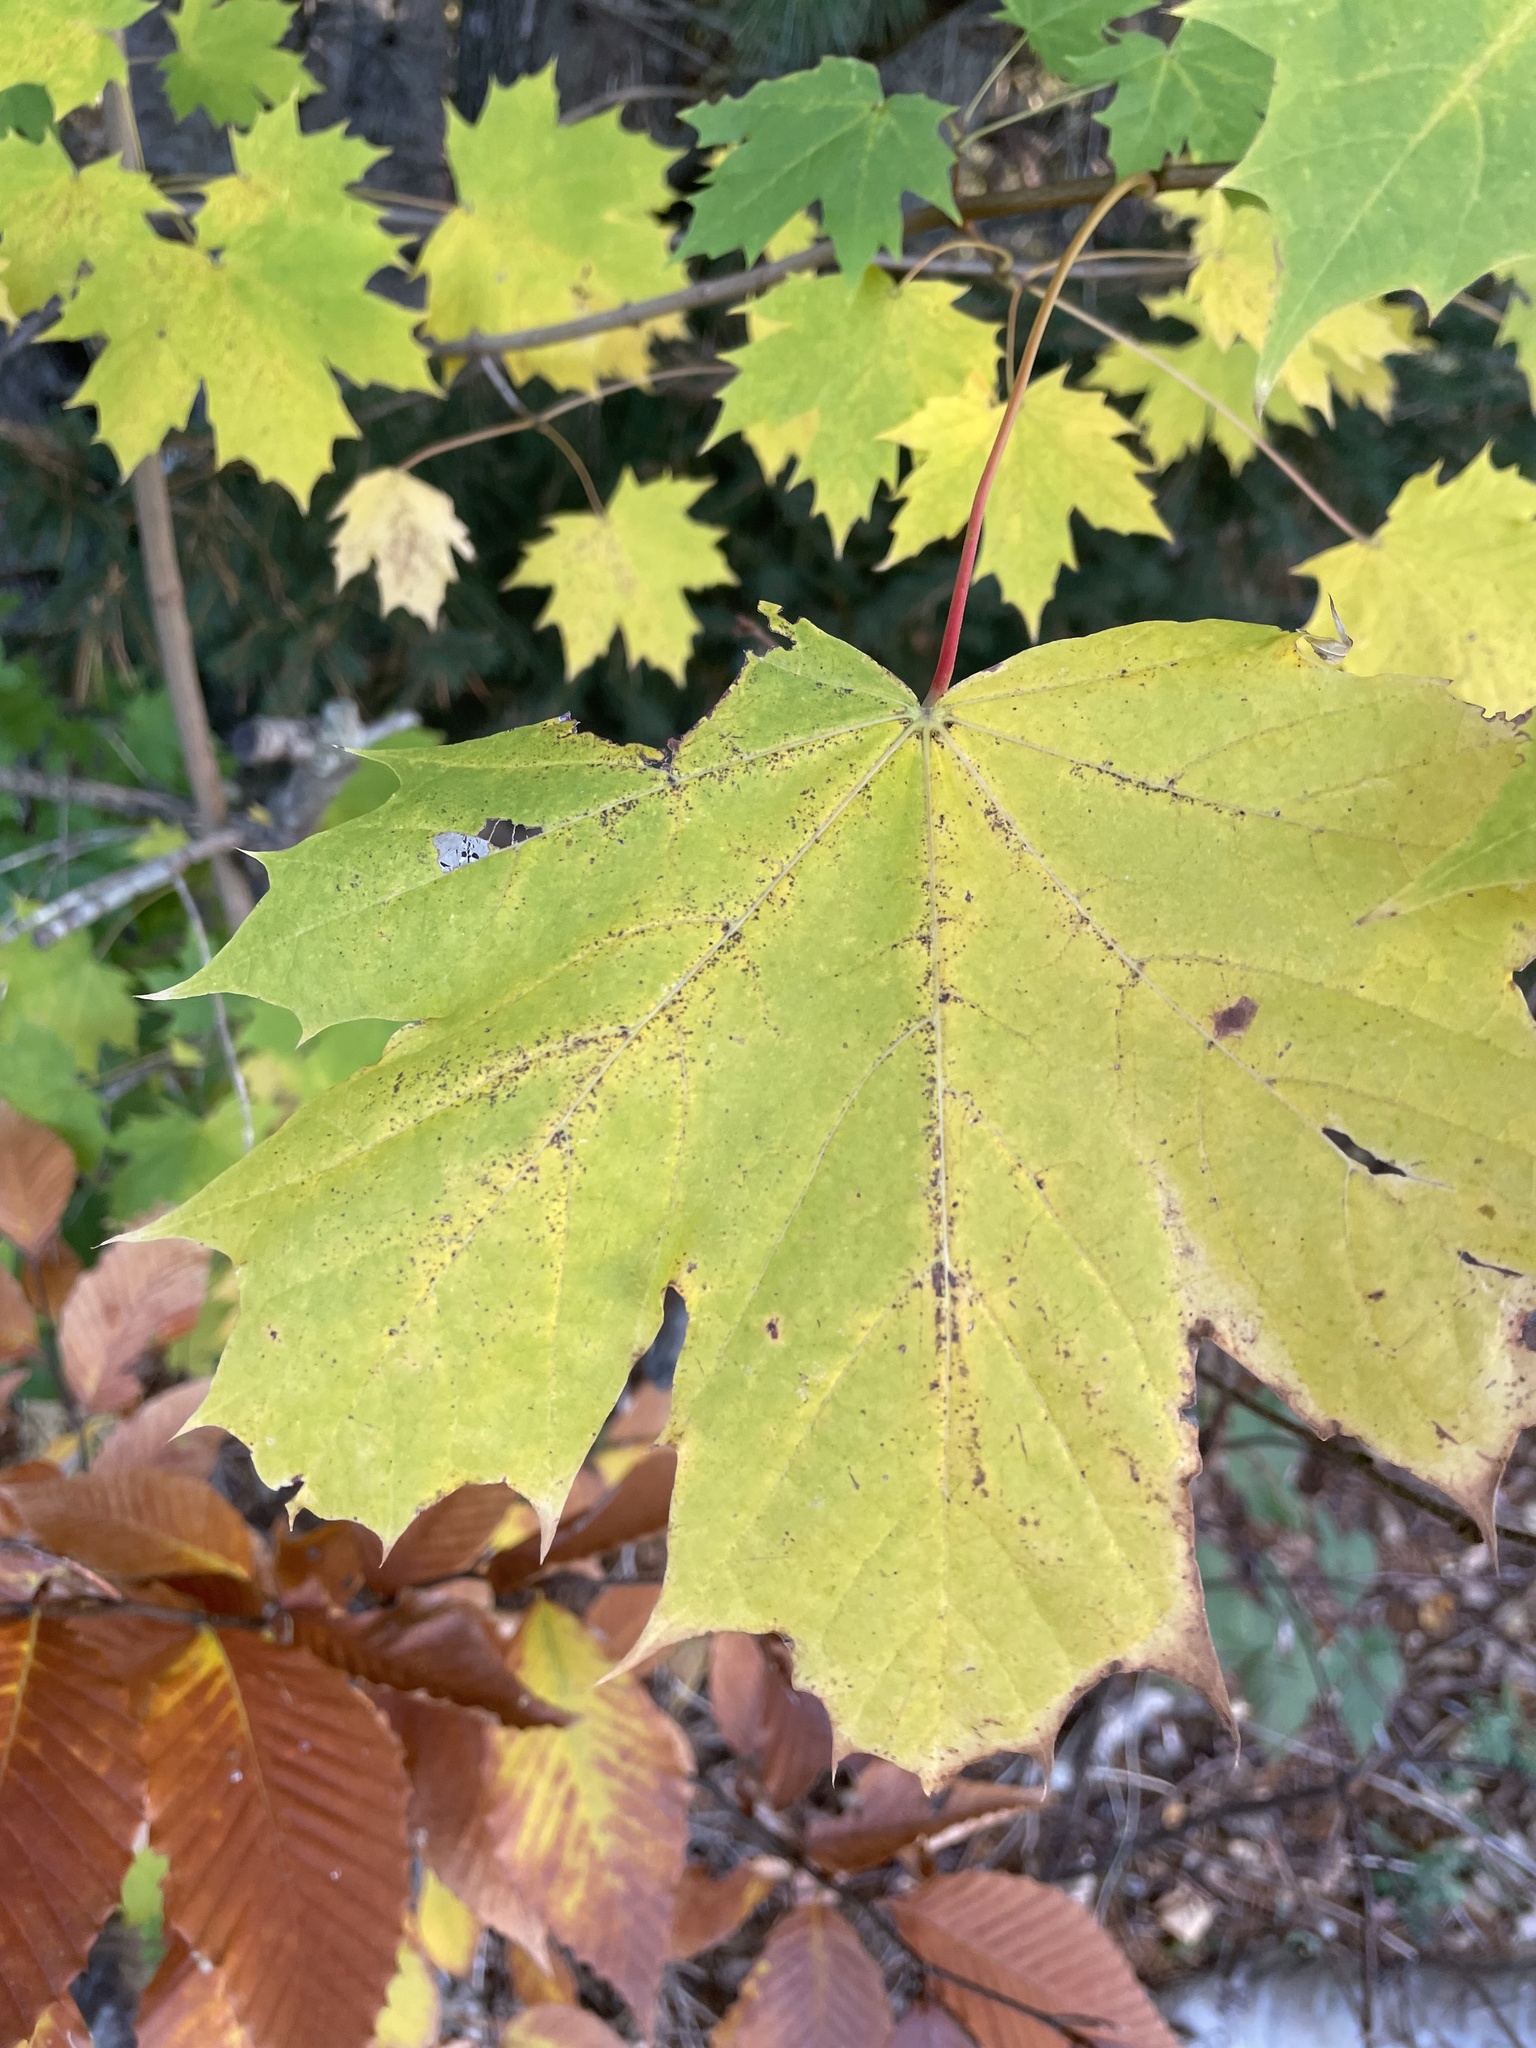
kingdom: Plantae
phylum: Tracheophyta
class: Magnoliopsida
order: Sapindales
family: Sapindaceae
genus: Acer
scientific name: Acer platanoides
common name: Norway maple
